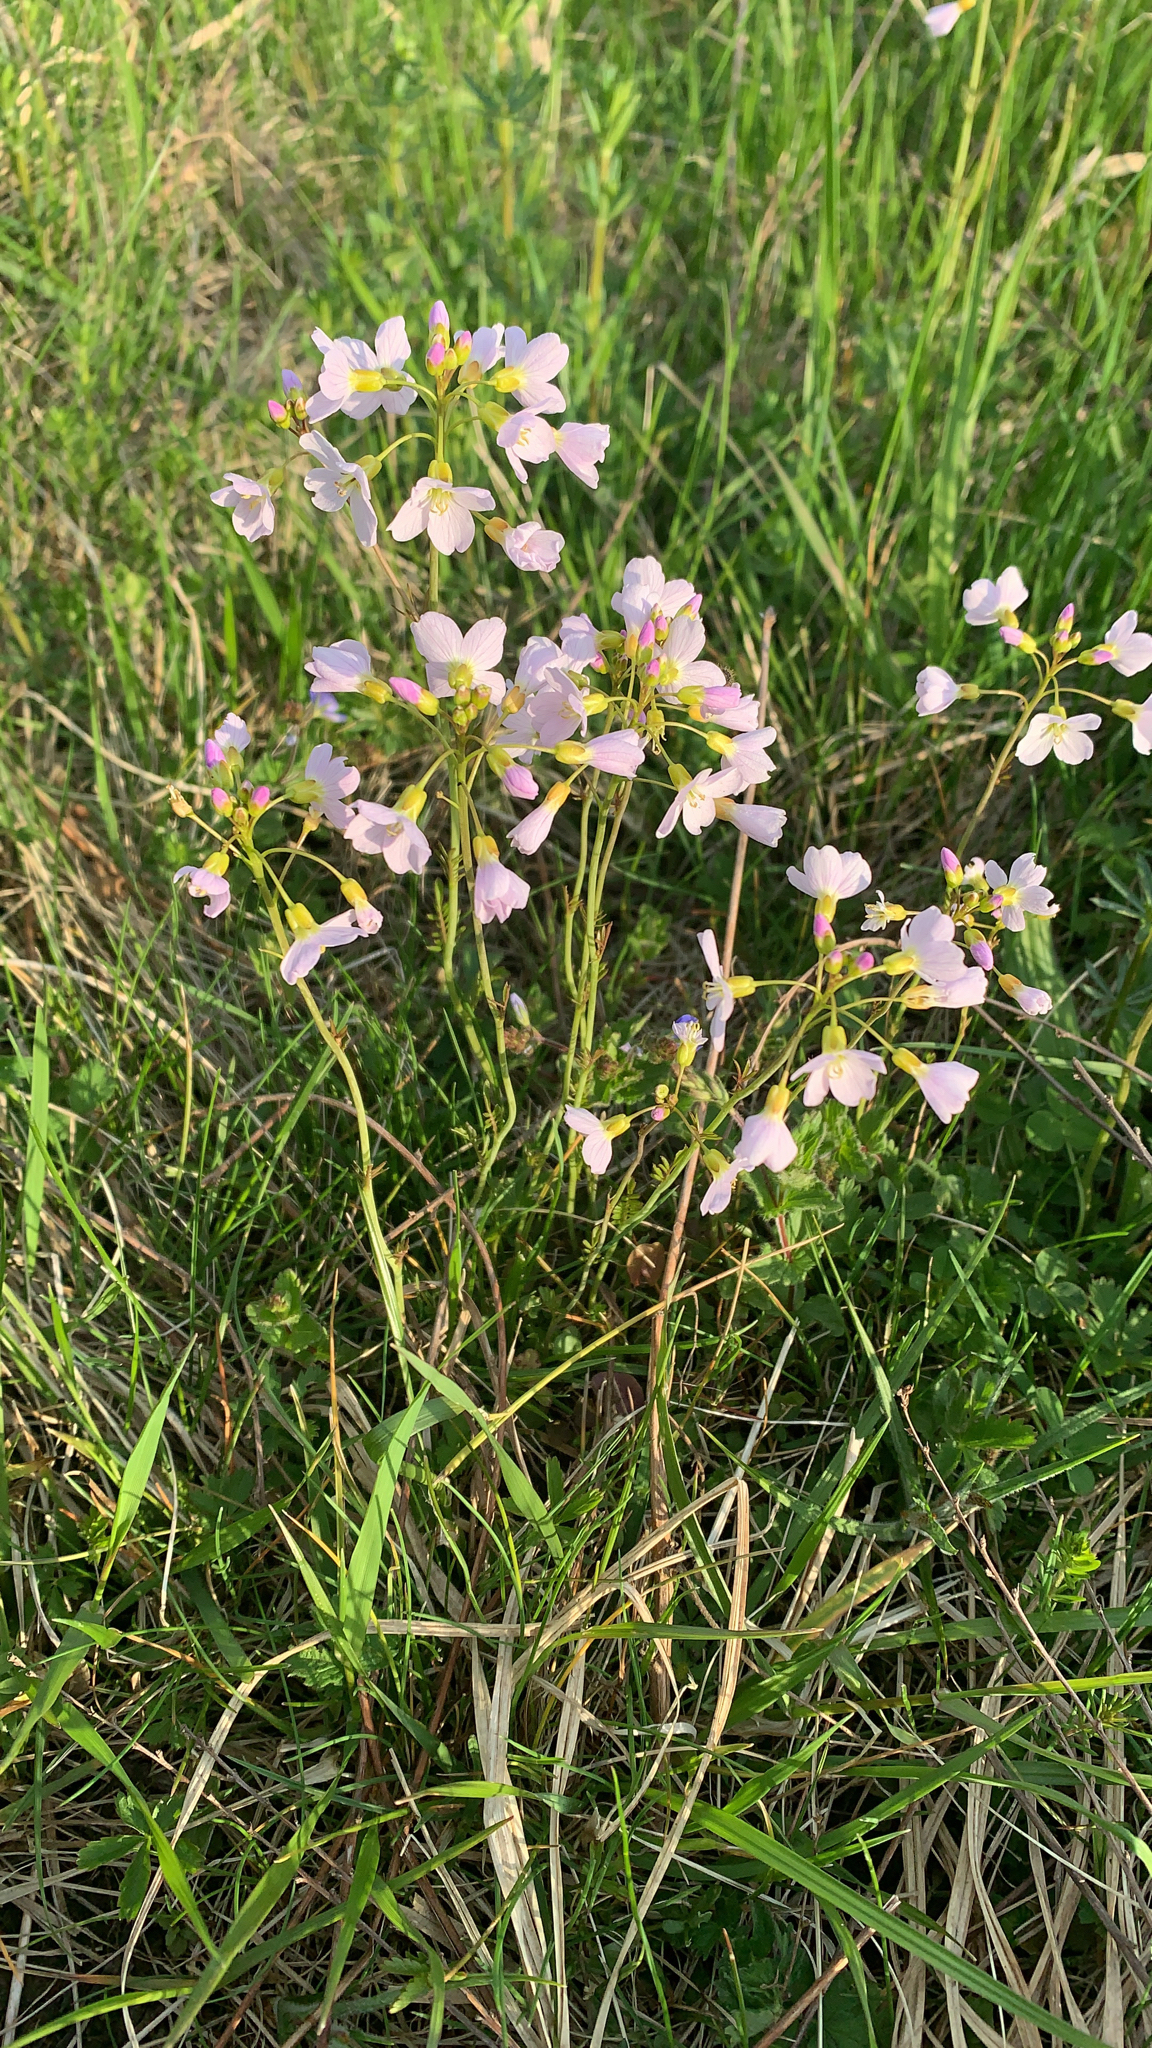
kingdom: Plantae
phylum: Tracheophyta
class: Magnoliopsida
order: Brassicales
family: Brassicaceae
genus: Cardamine
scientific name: Cardamine pratensis
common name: Cuckoo flower
